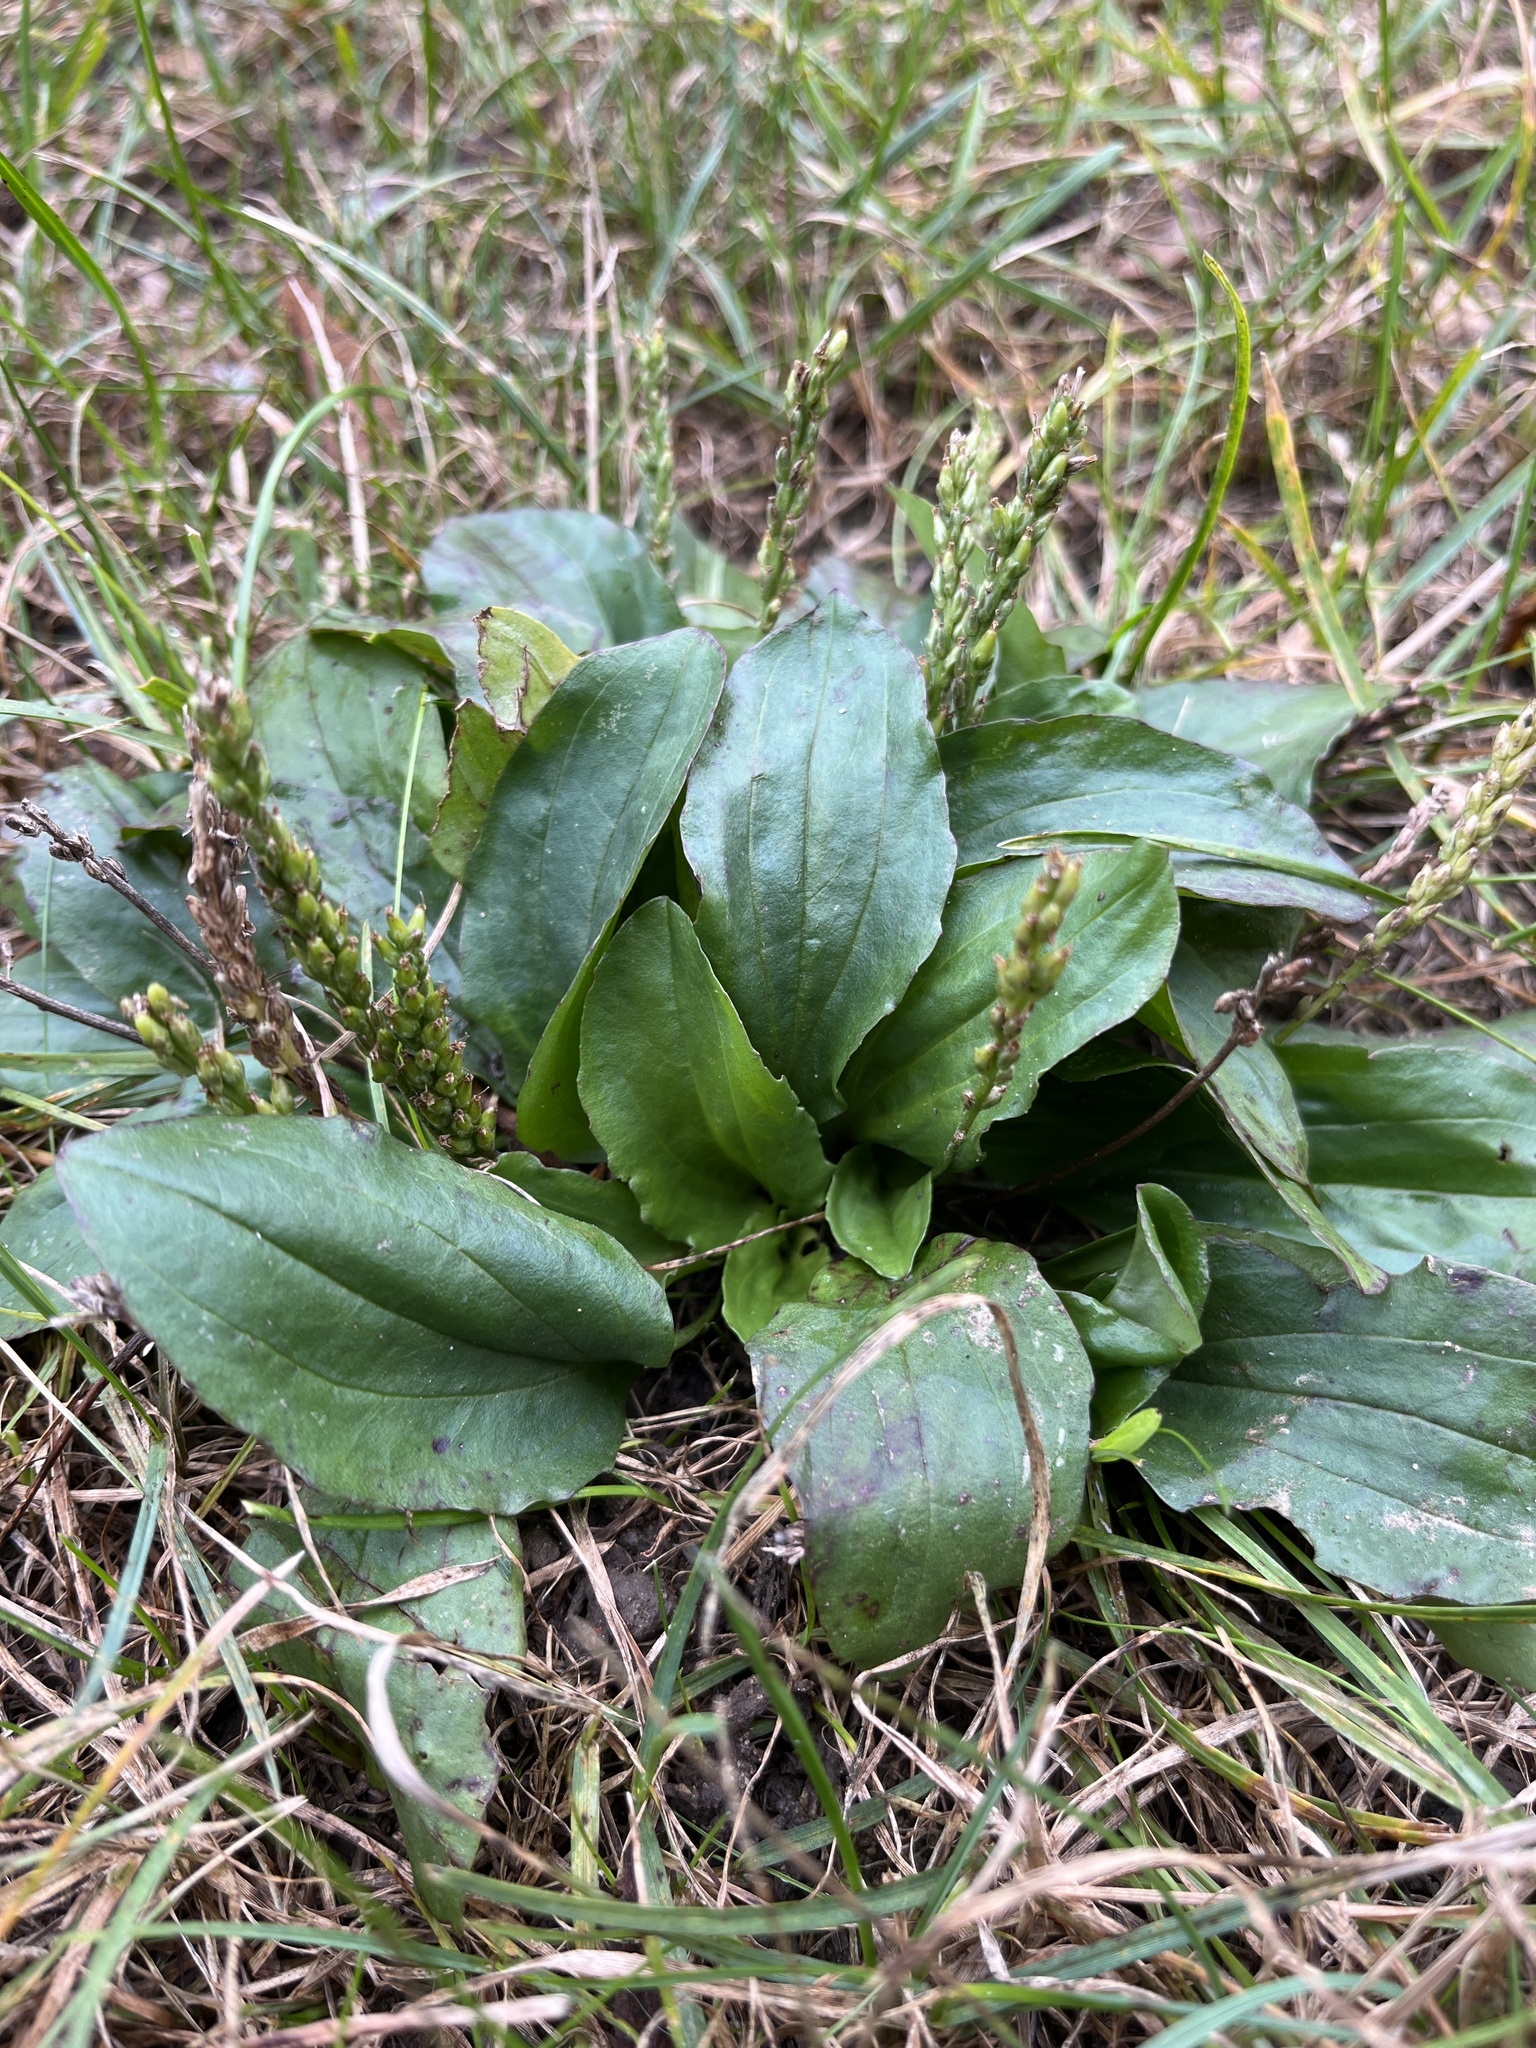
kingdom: Plantae
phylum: Tracheophyta
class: Magnoliopsida
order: Lamiales
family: Plantaginaceae
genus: Plantago
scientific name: Plantago rugelii
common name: American plantain
